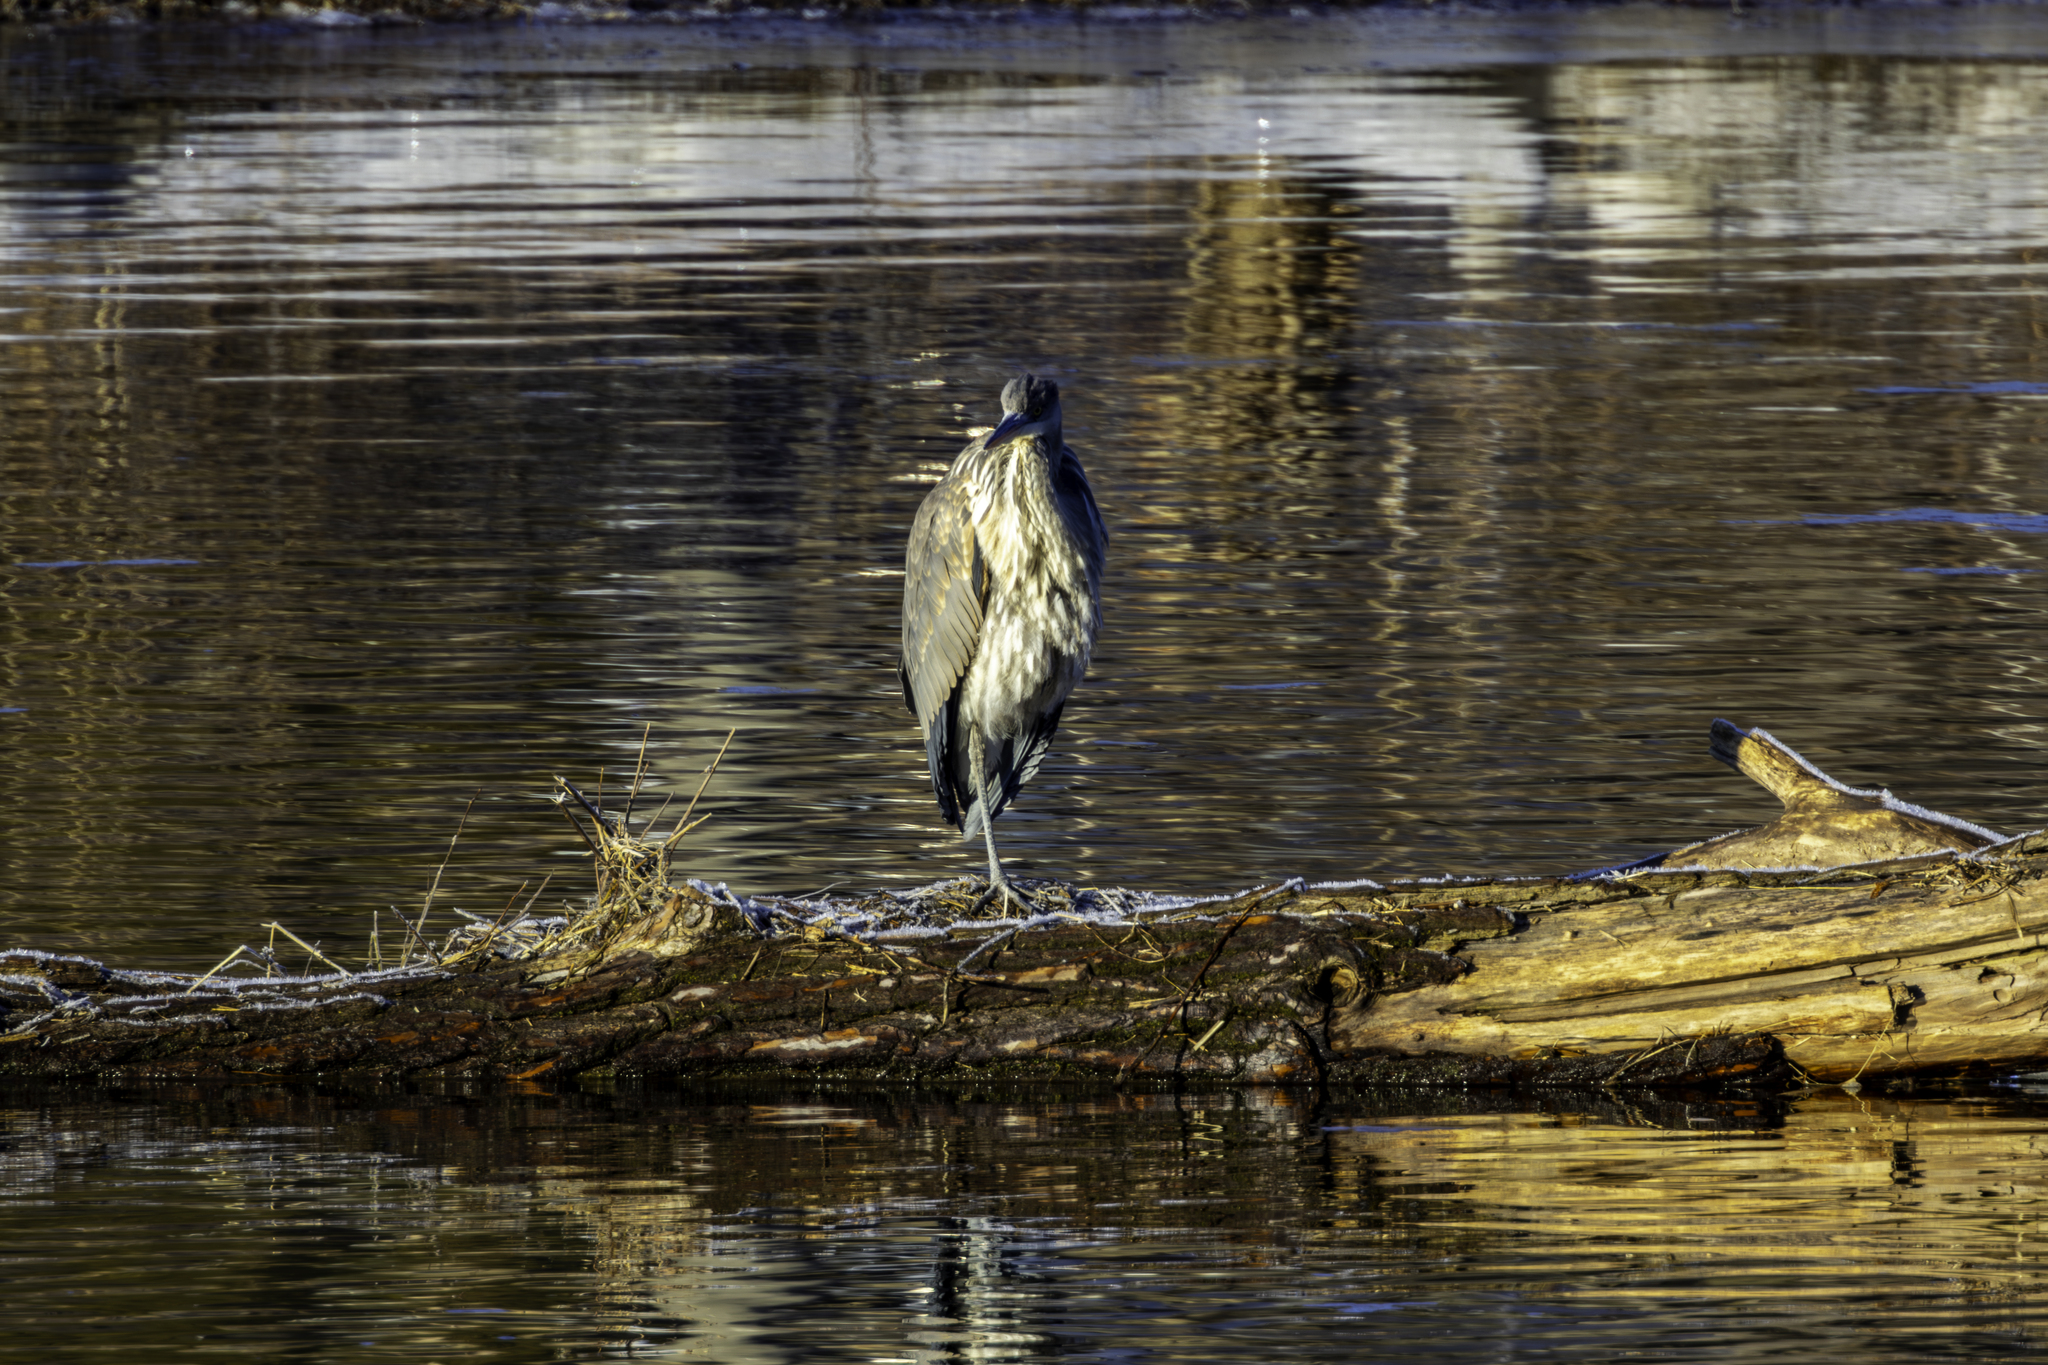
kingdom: Animalia
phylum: Chordata
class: Aves
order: Pelecaniformes
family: Ardeidae
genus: Ardea
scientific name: Ardea herodias
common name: Great blue heron
